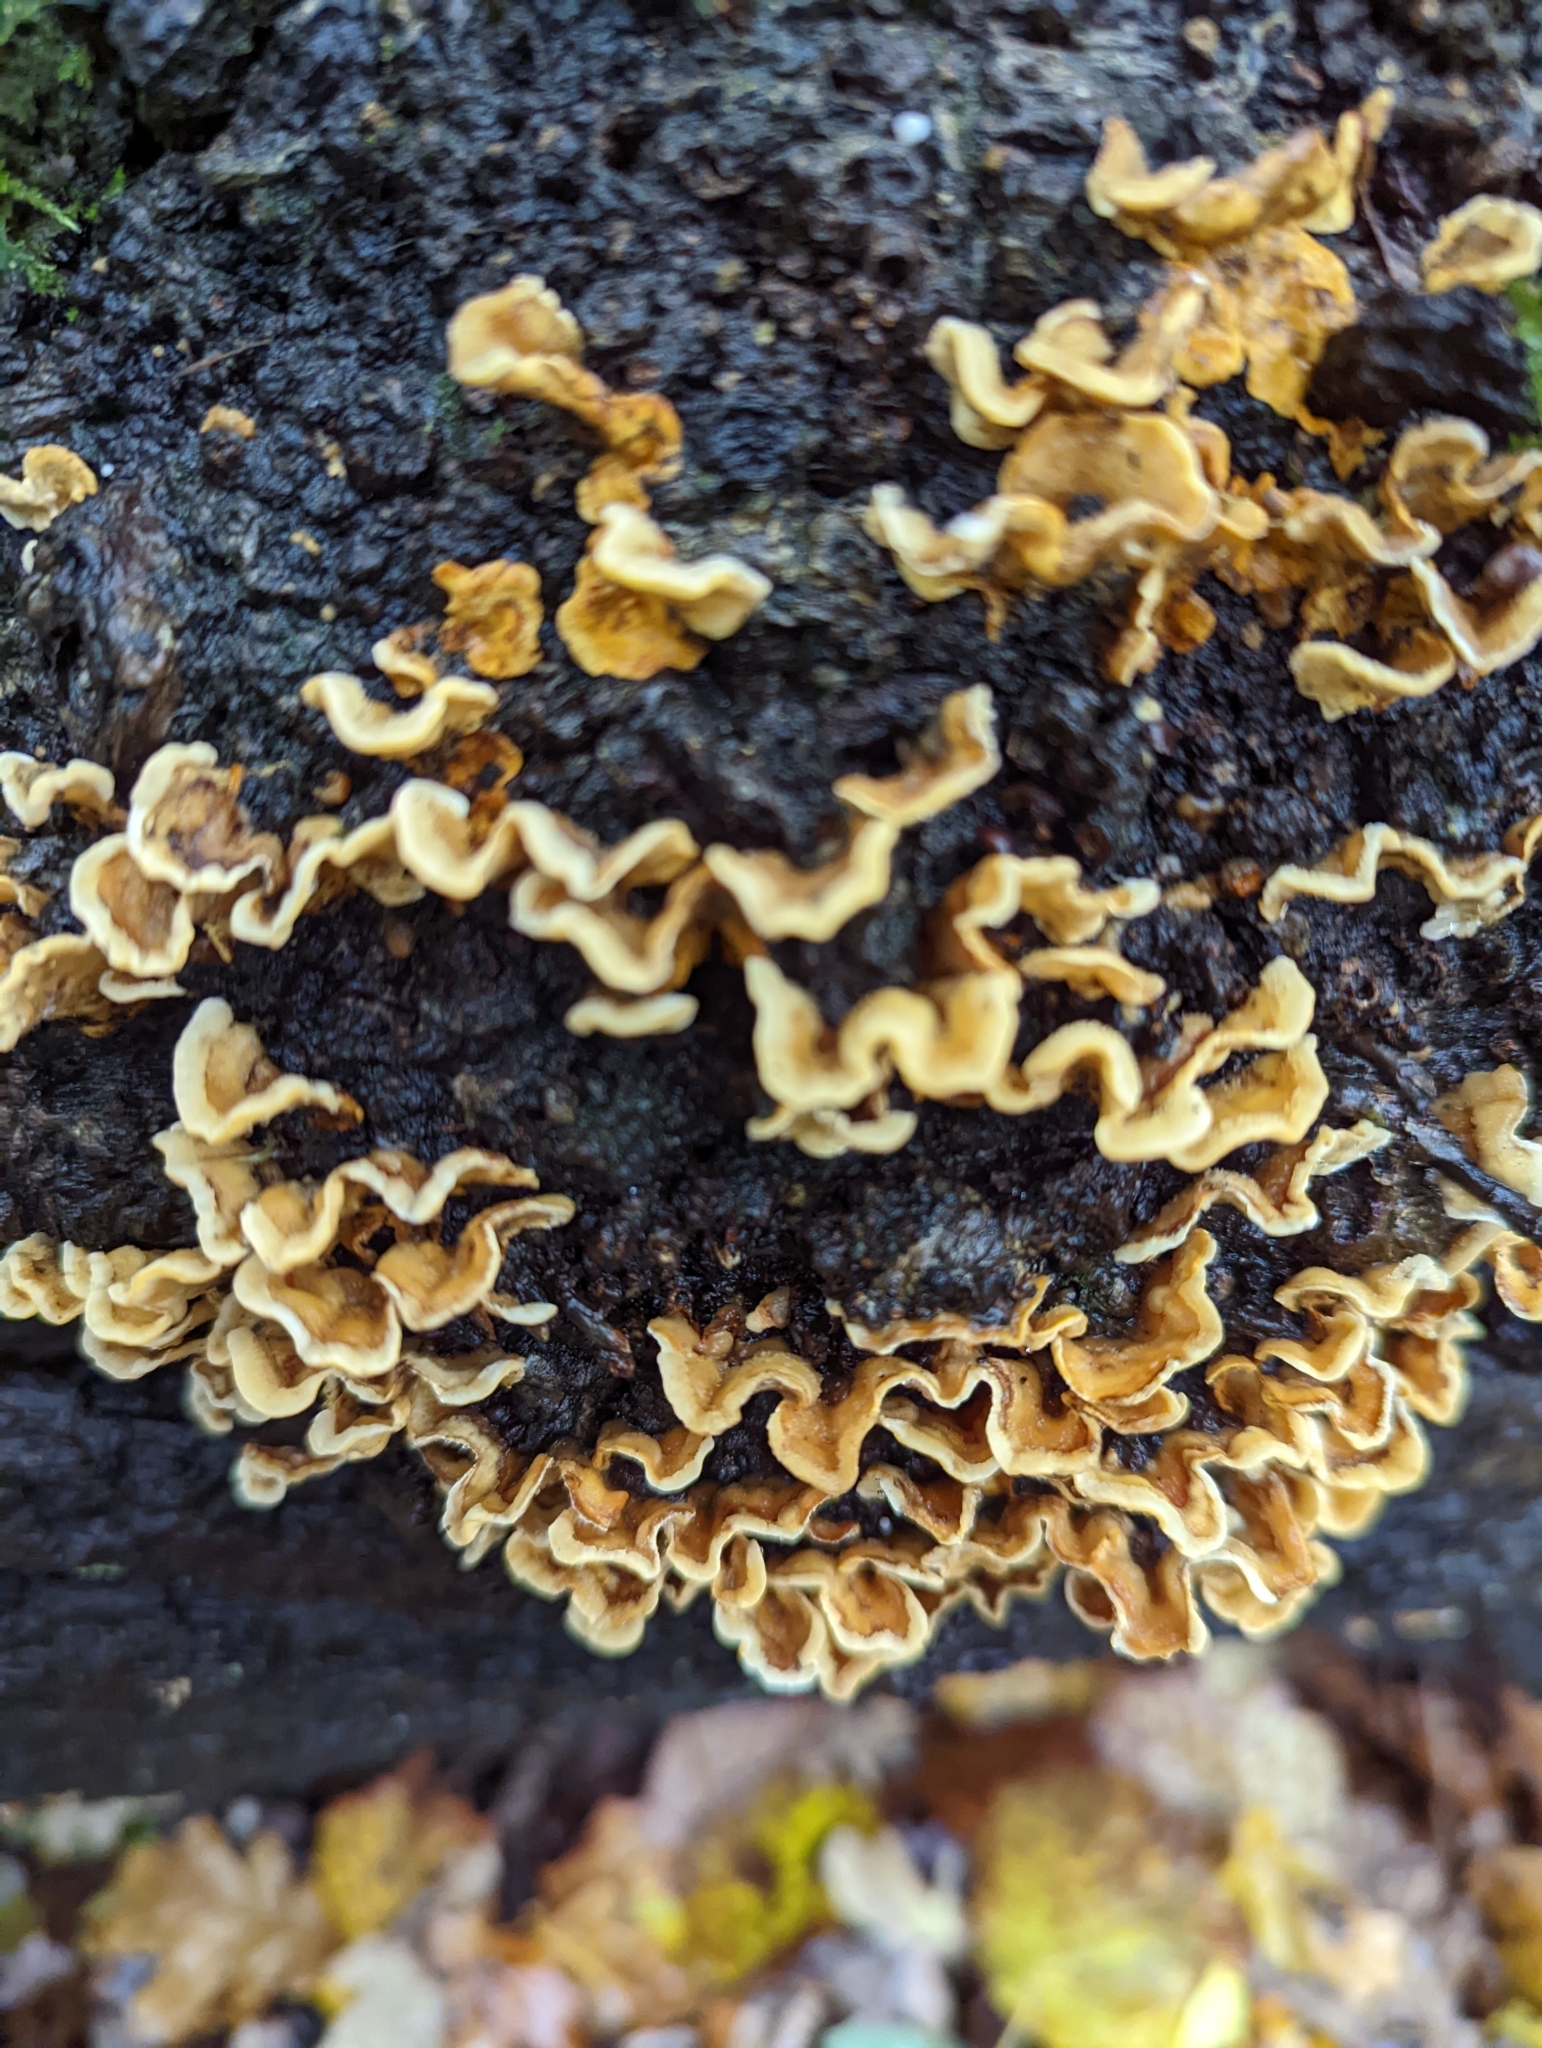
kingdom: Fungi
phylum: Basidiomycota
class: Agaricomycetes
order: Russulales
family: Stereaceae
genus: Stereum
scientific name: Stereum hirsutum
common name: Hairy curtain crust
